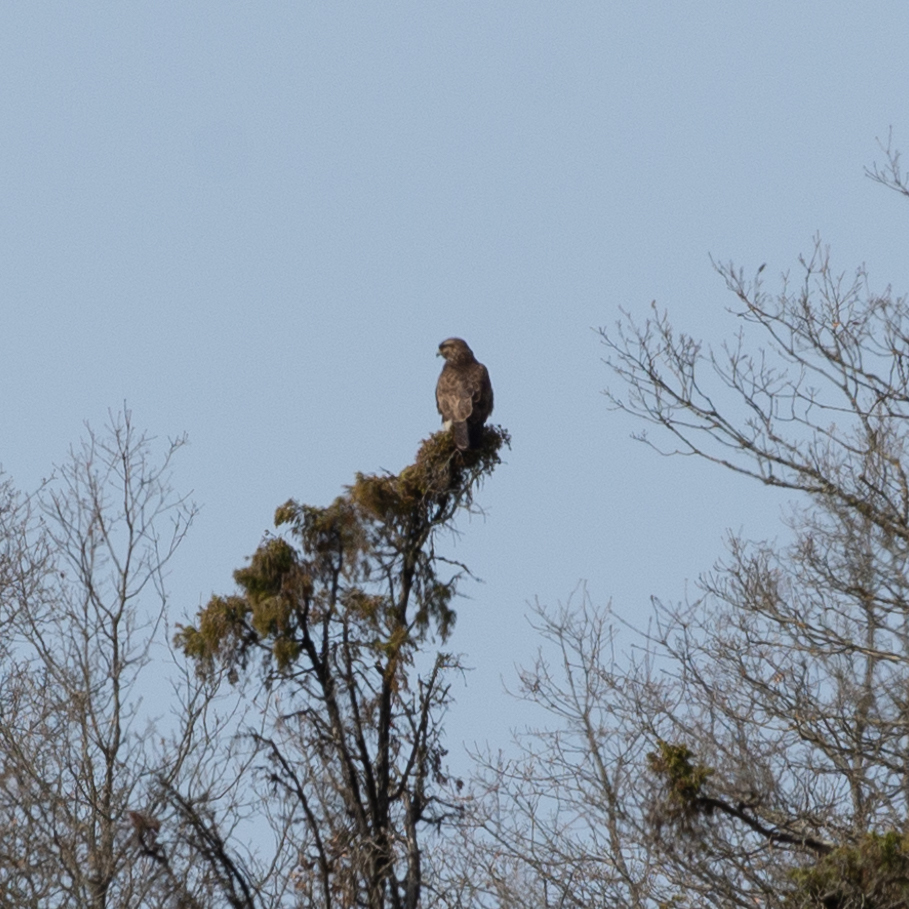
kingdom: Animalia
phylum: Chordata
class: Aves
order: Accipitriformes
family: Accipitridae
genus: Buteo
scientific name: Buteo buteo
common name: Common buzzard
